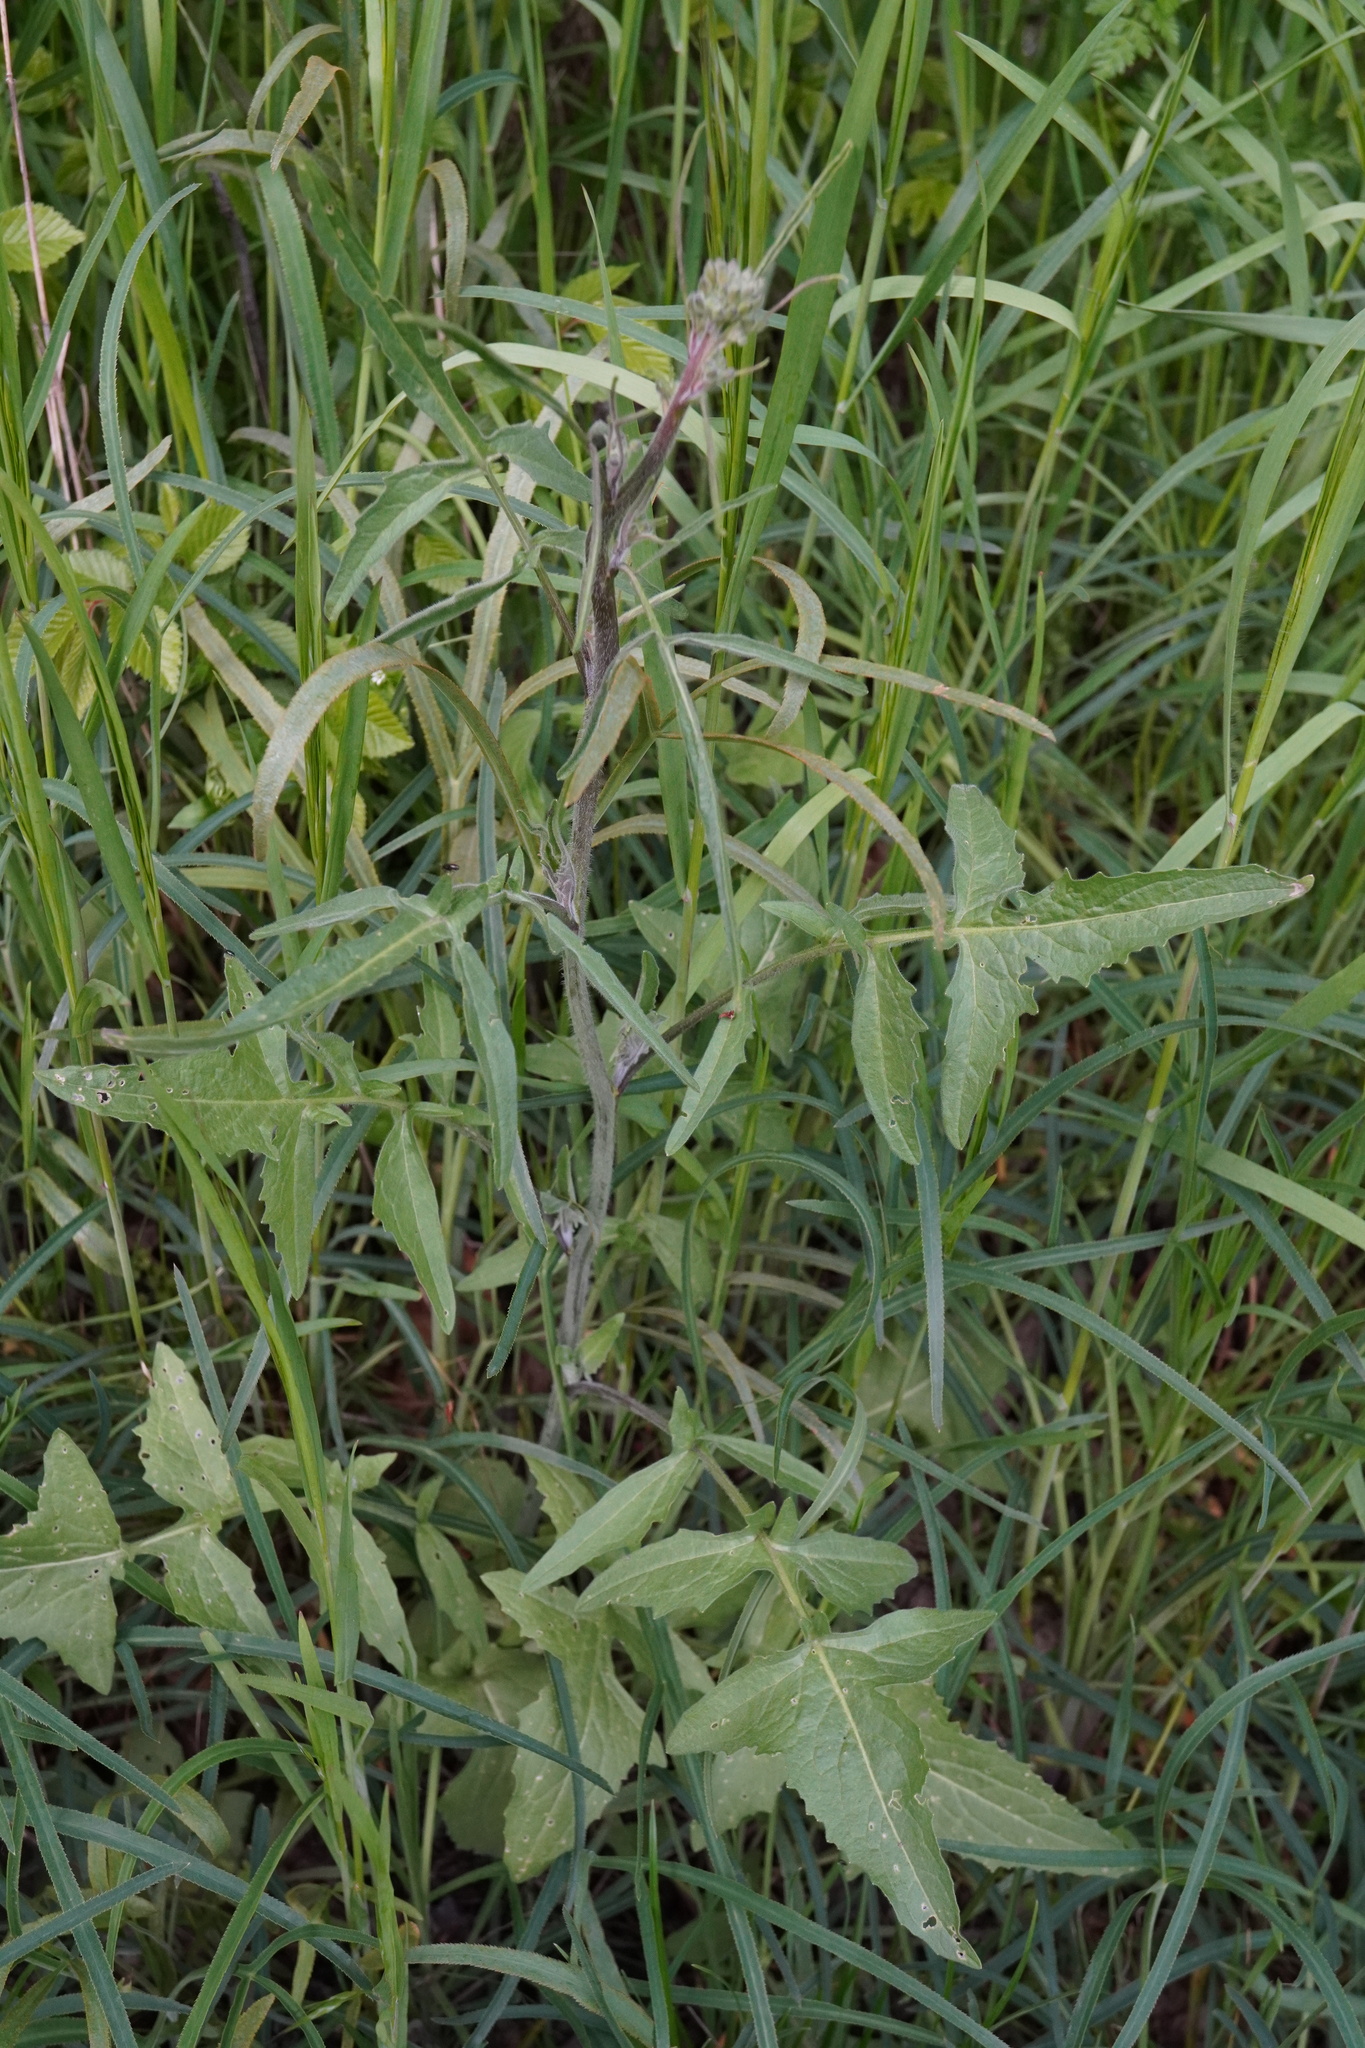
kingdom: Plantae
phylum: Tracheophyta
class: Magnoliopsida
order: Brassicales
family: Brassicaceae
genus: Sisymbrium
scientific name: Sisymbrium orientale
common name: Eastern rocket
